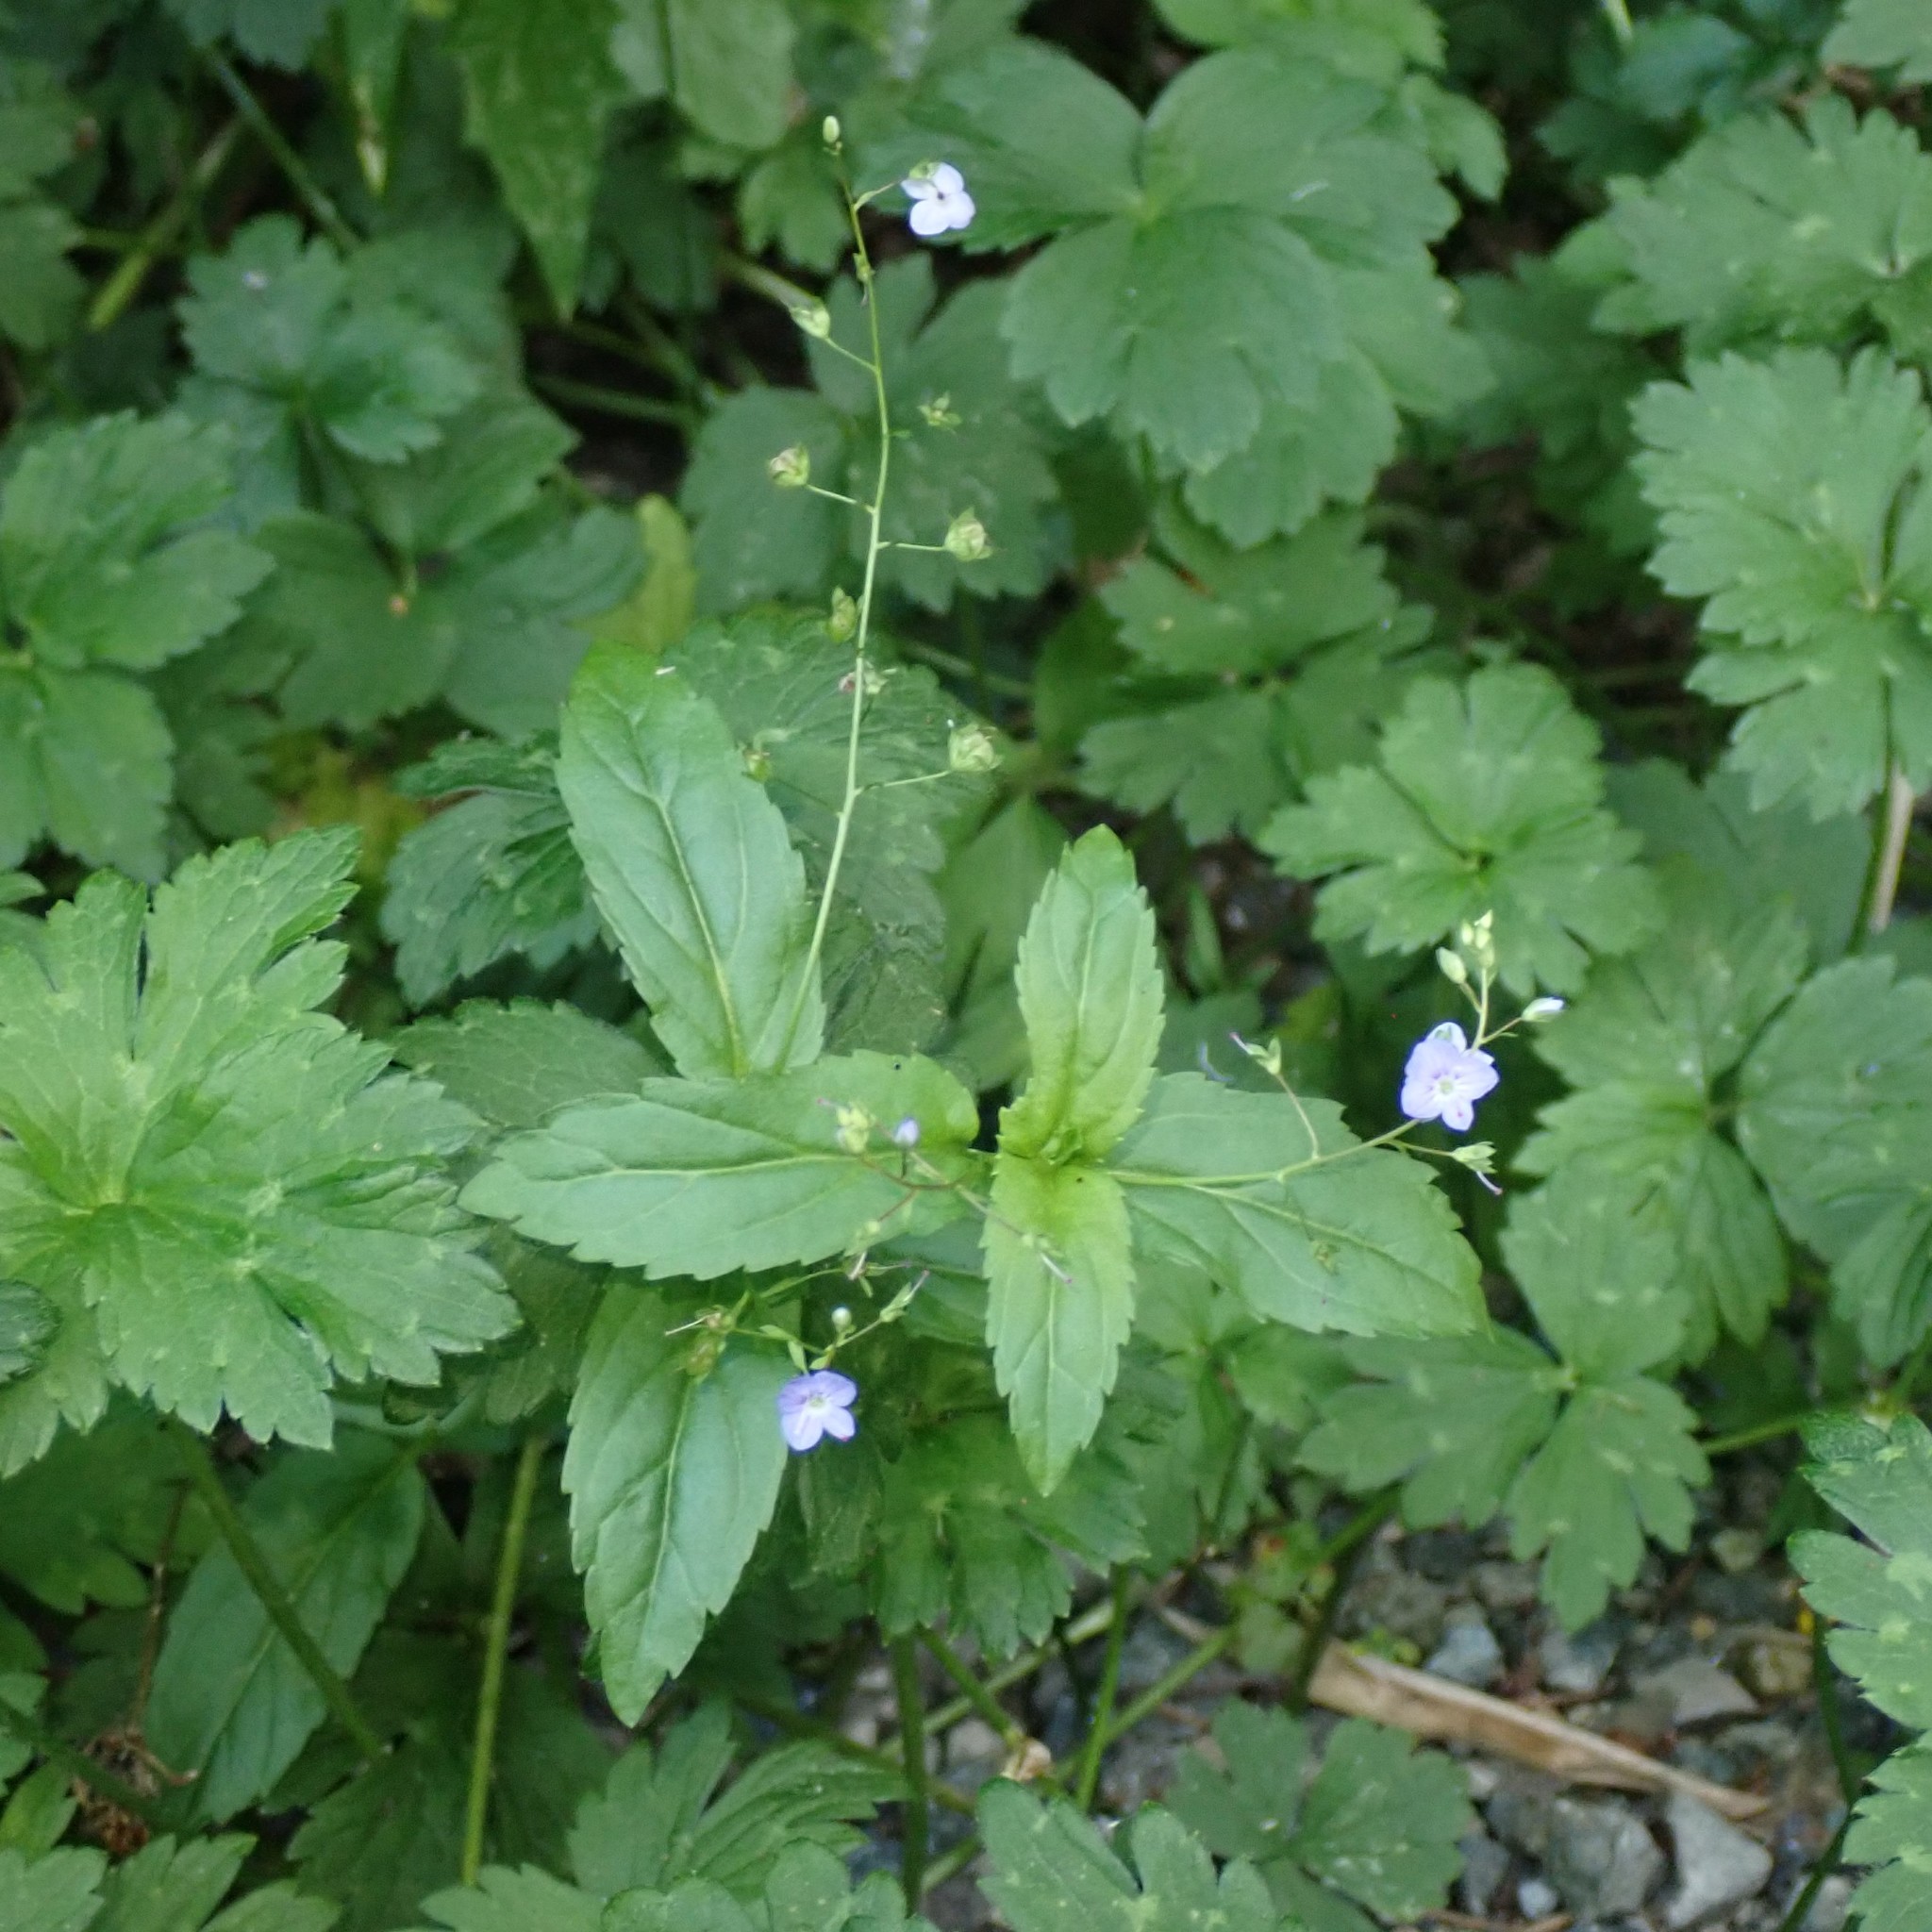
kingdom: Plantae
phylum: Tracheophyta
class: Magnoliopsida
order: Lamiales
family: Plantaginaceae
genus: Veronica
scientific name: Veronica americana
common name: American brooklime
